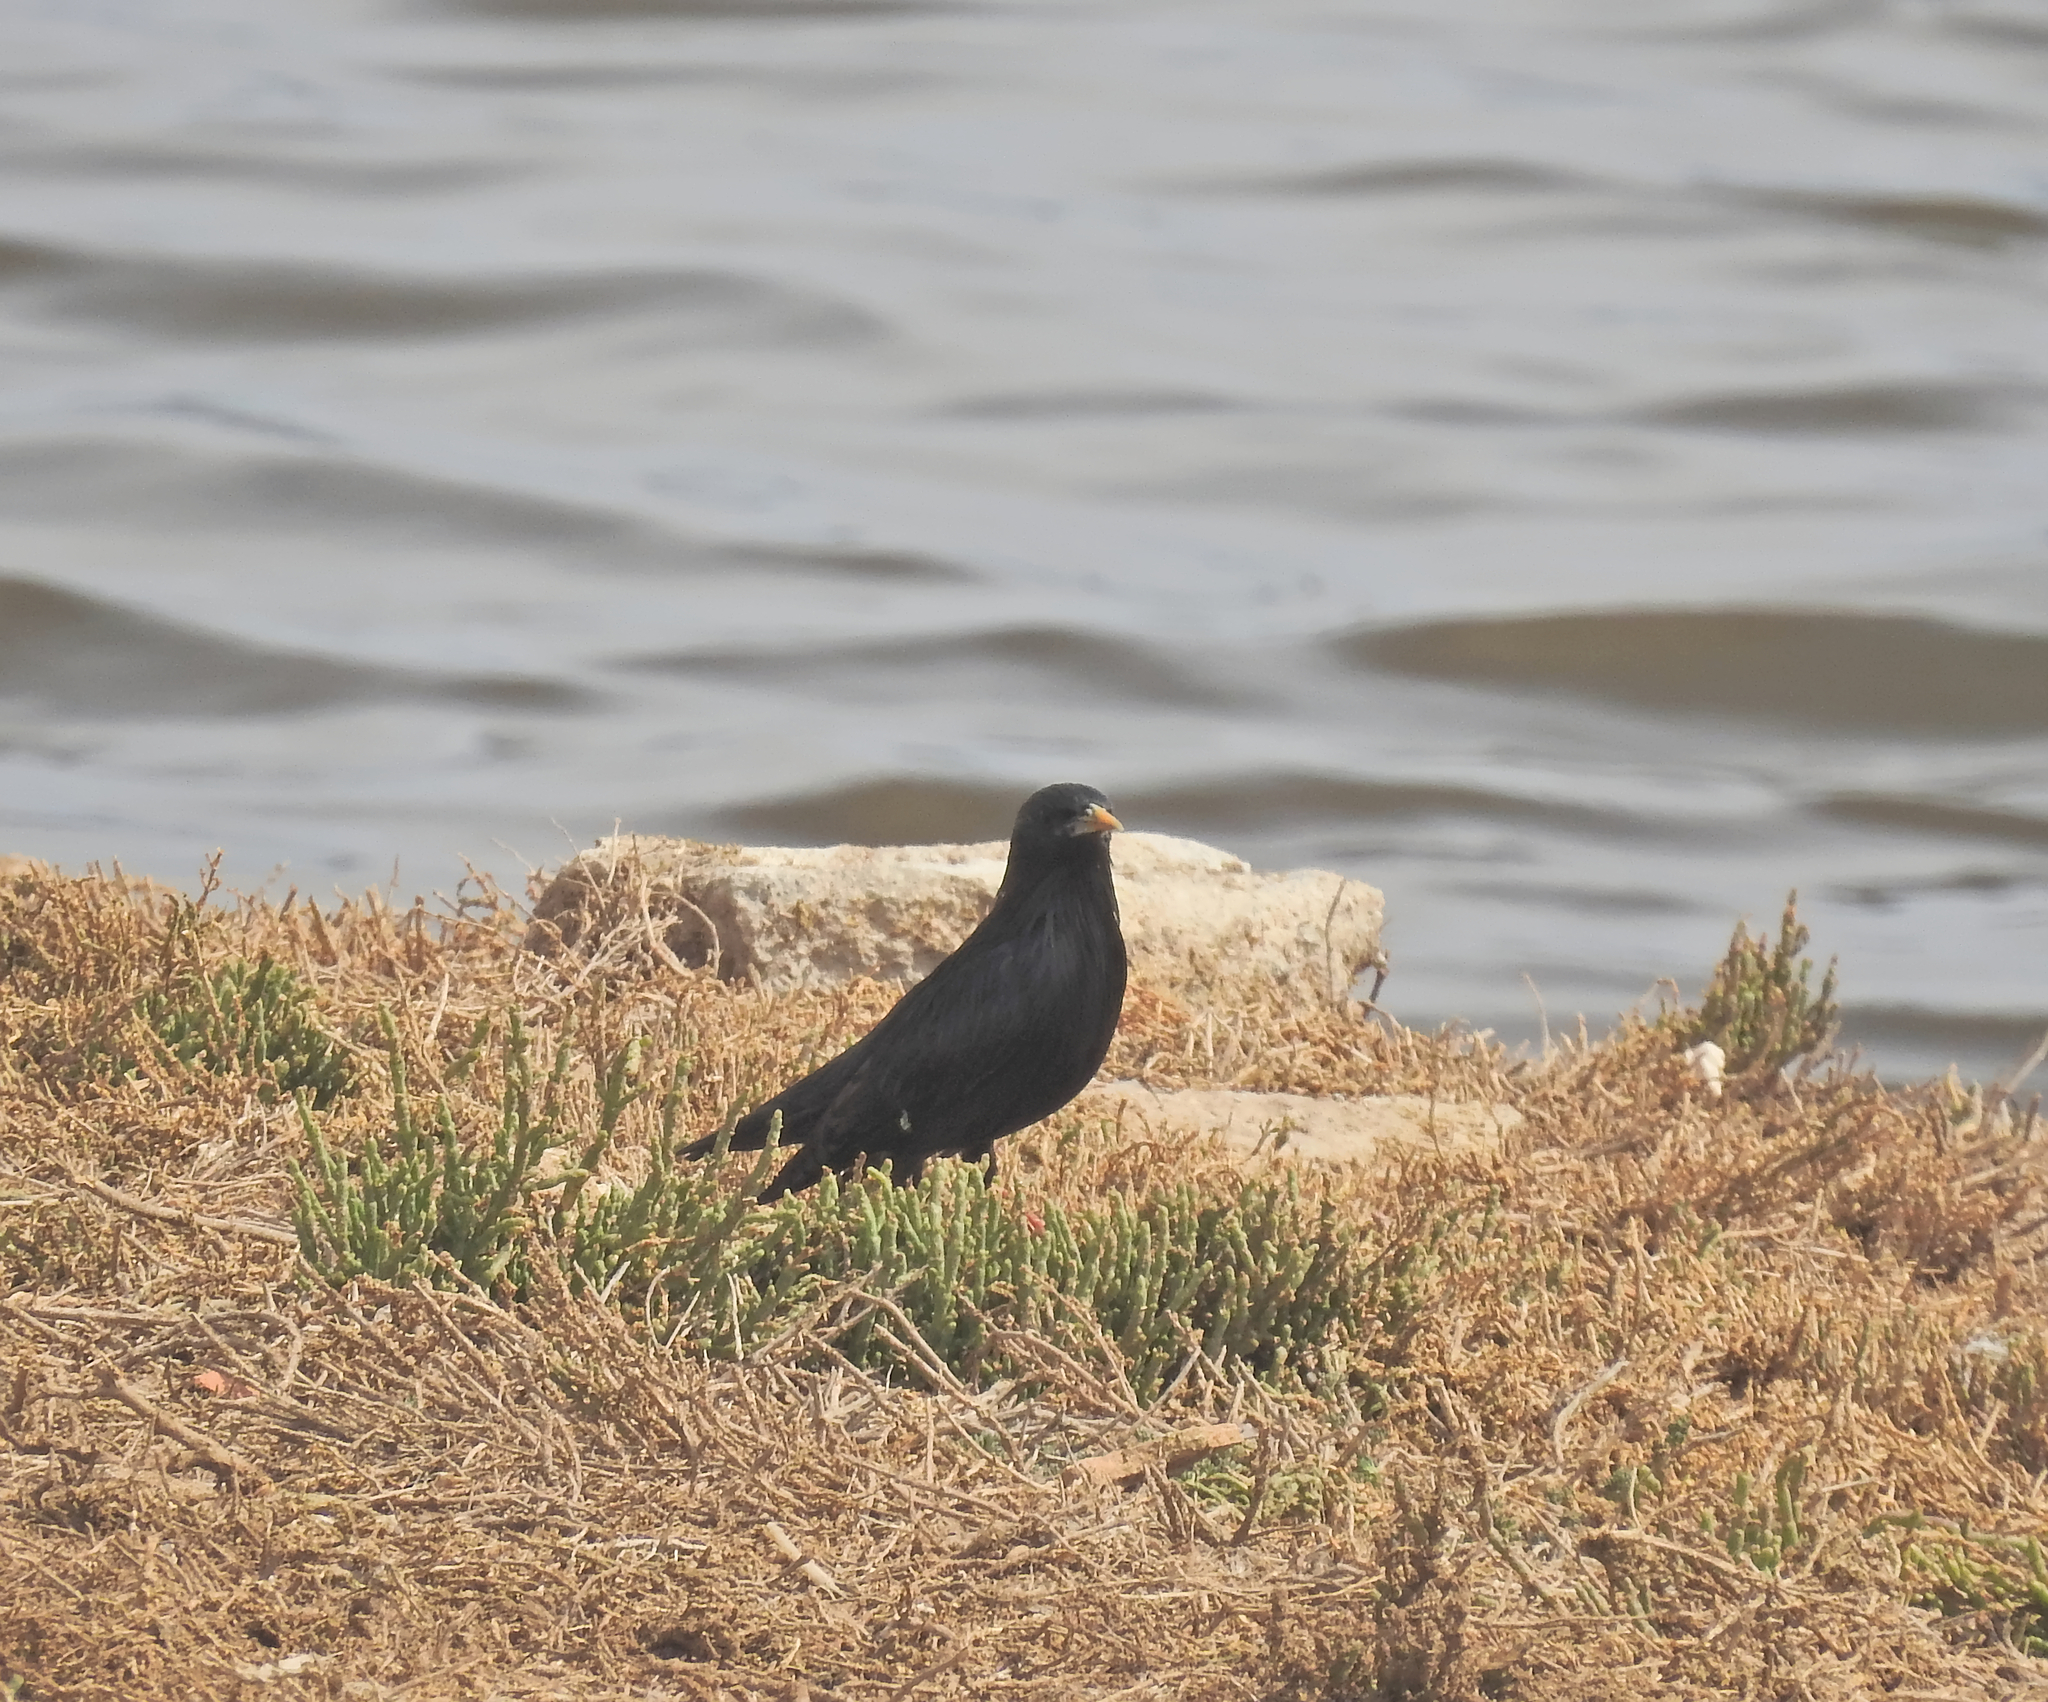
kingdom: Animalia
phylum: Chordata
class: Aves
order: Passeriformes
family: Sturnidae
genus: Sturnus
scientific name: Sturnus unicolor
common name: Spotless starling
